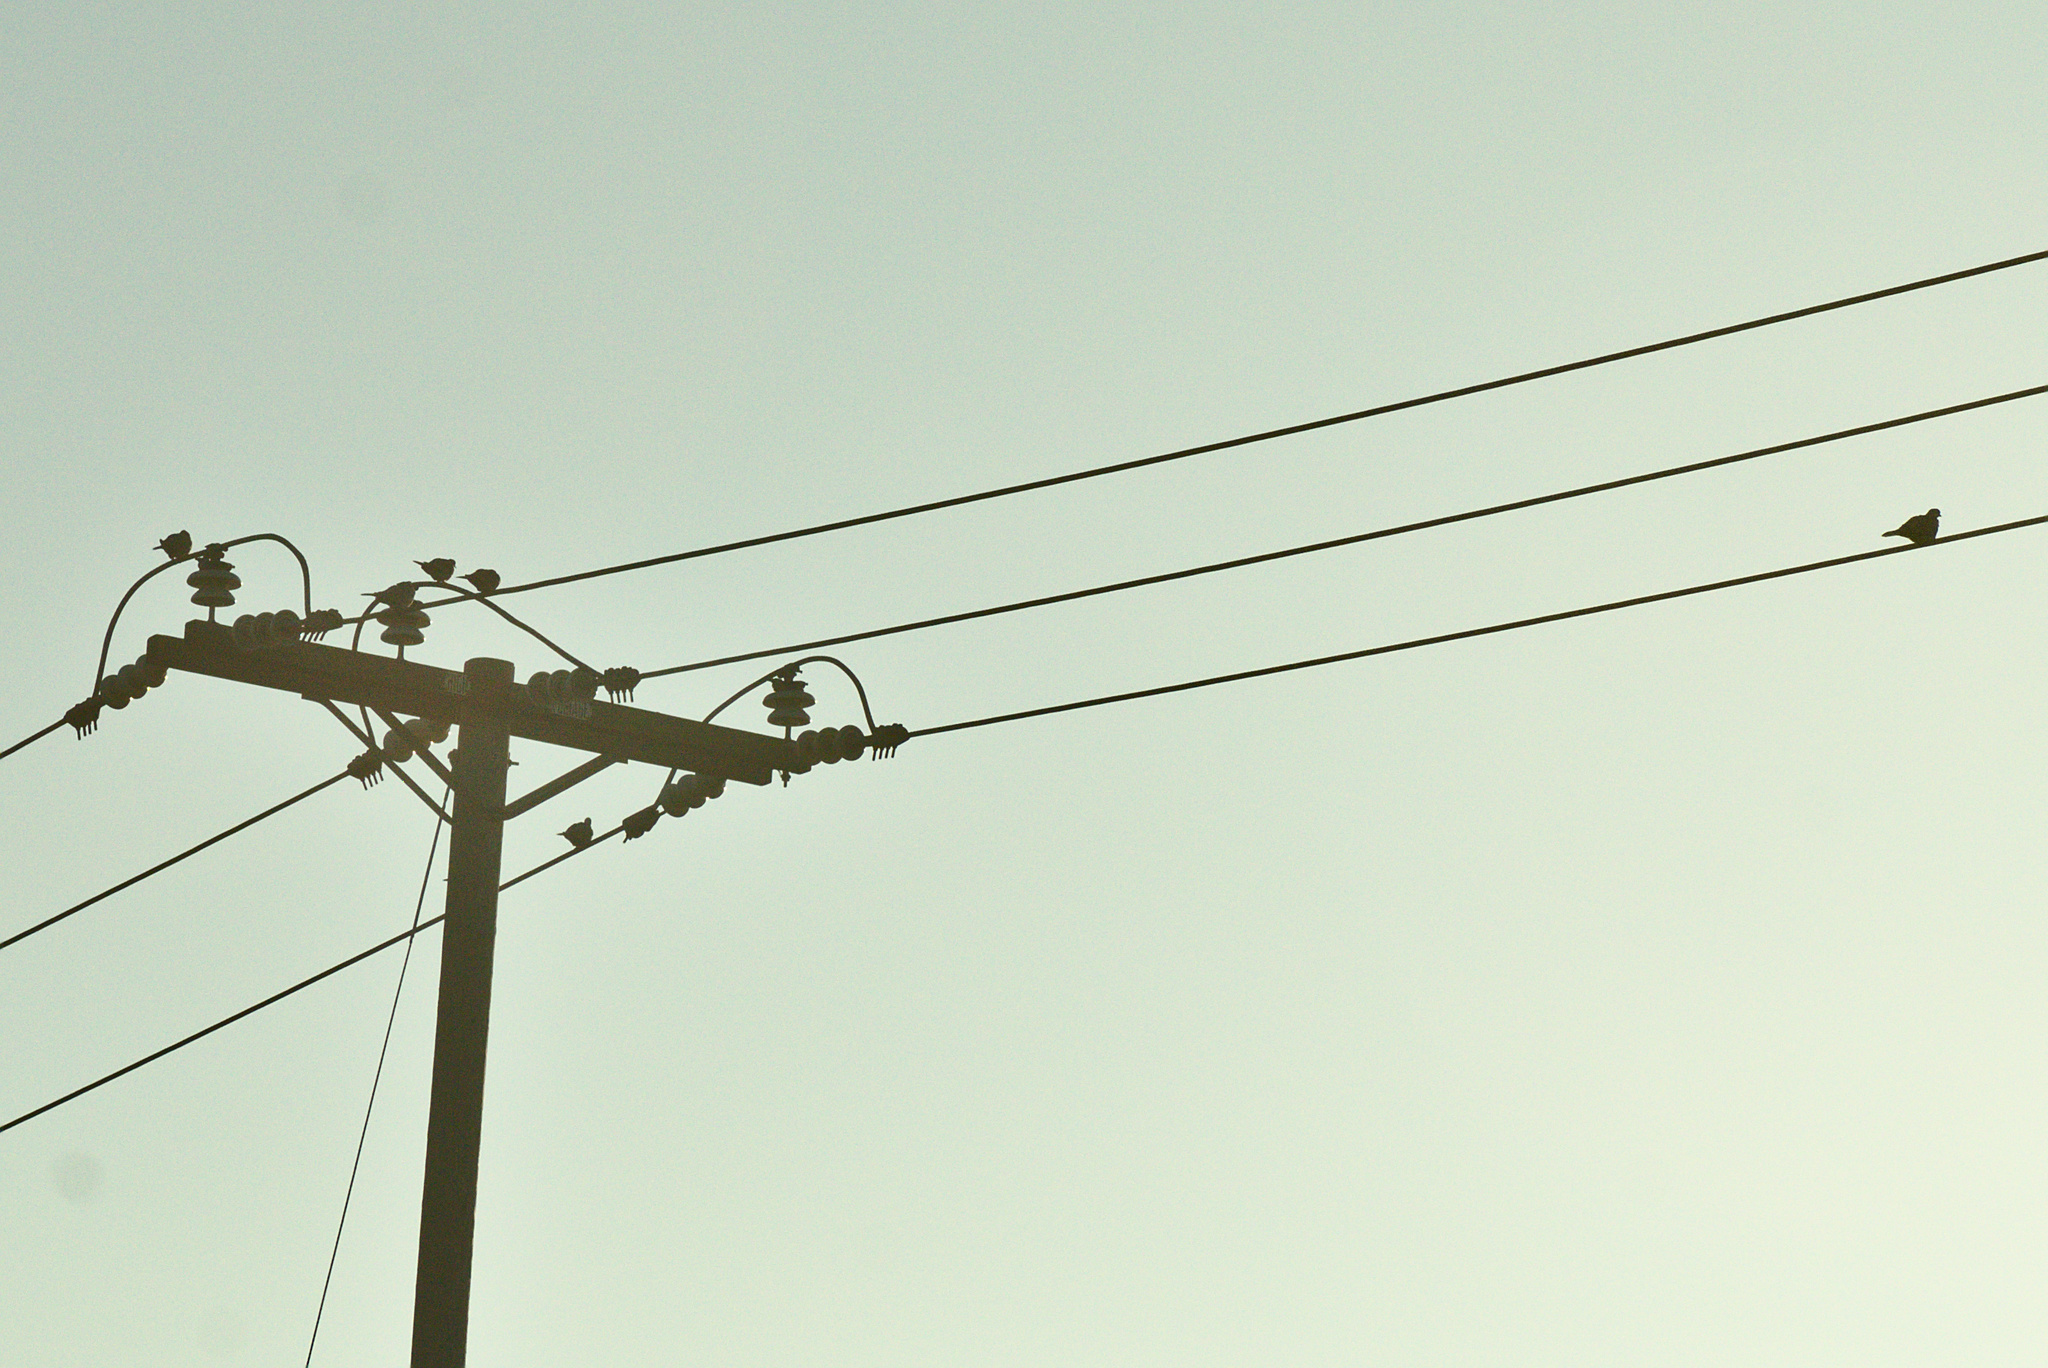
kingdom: Animalia
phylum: Chordata
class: Aves
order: Columbiformes
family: Columbidae
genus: Zenaida
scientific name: Zenaida macroura
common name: Mourning dove
